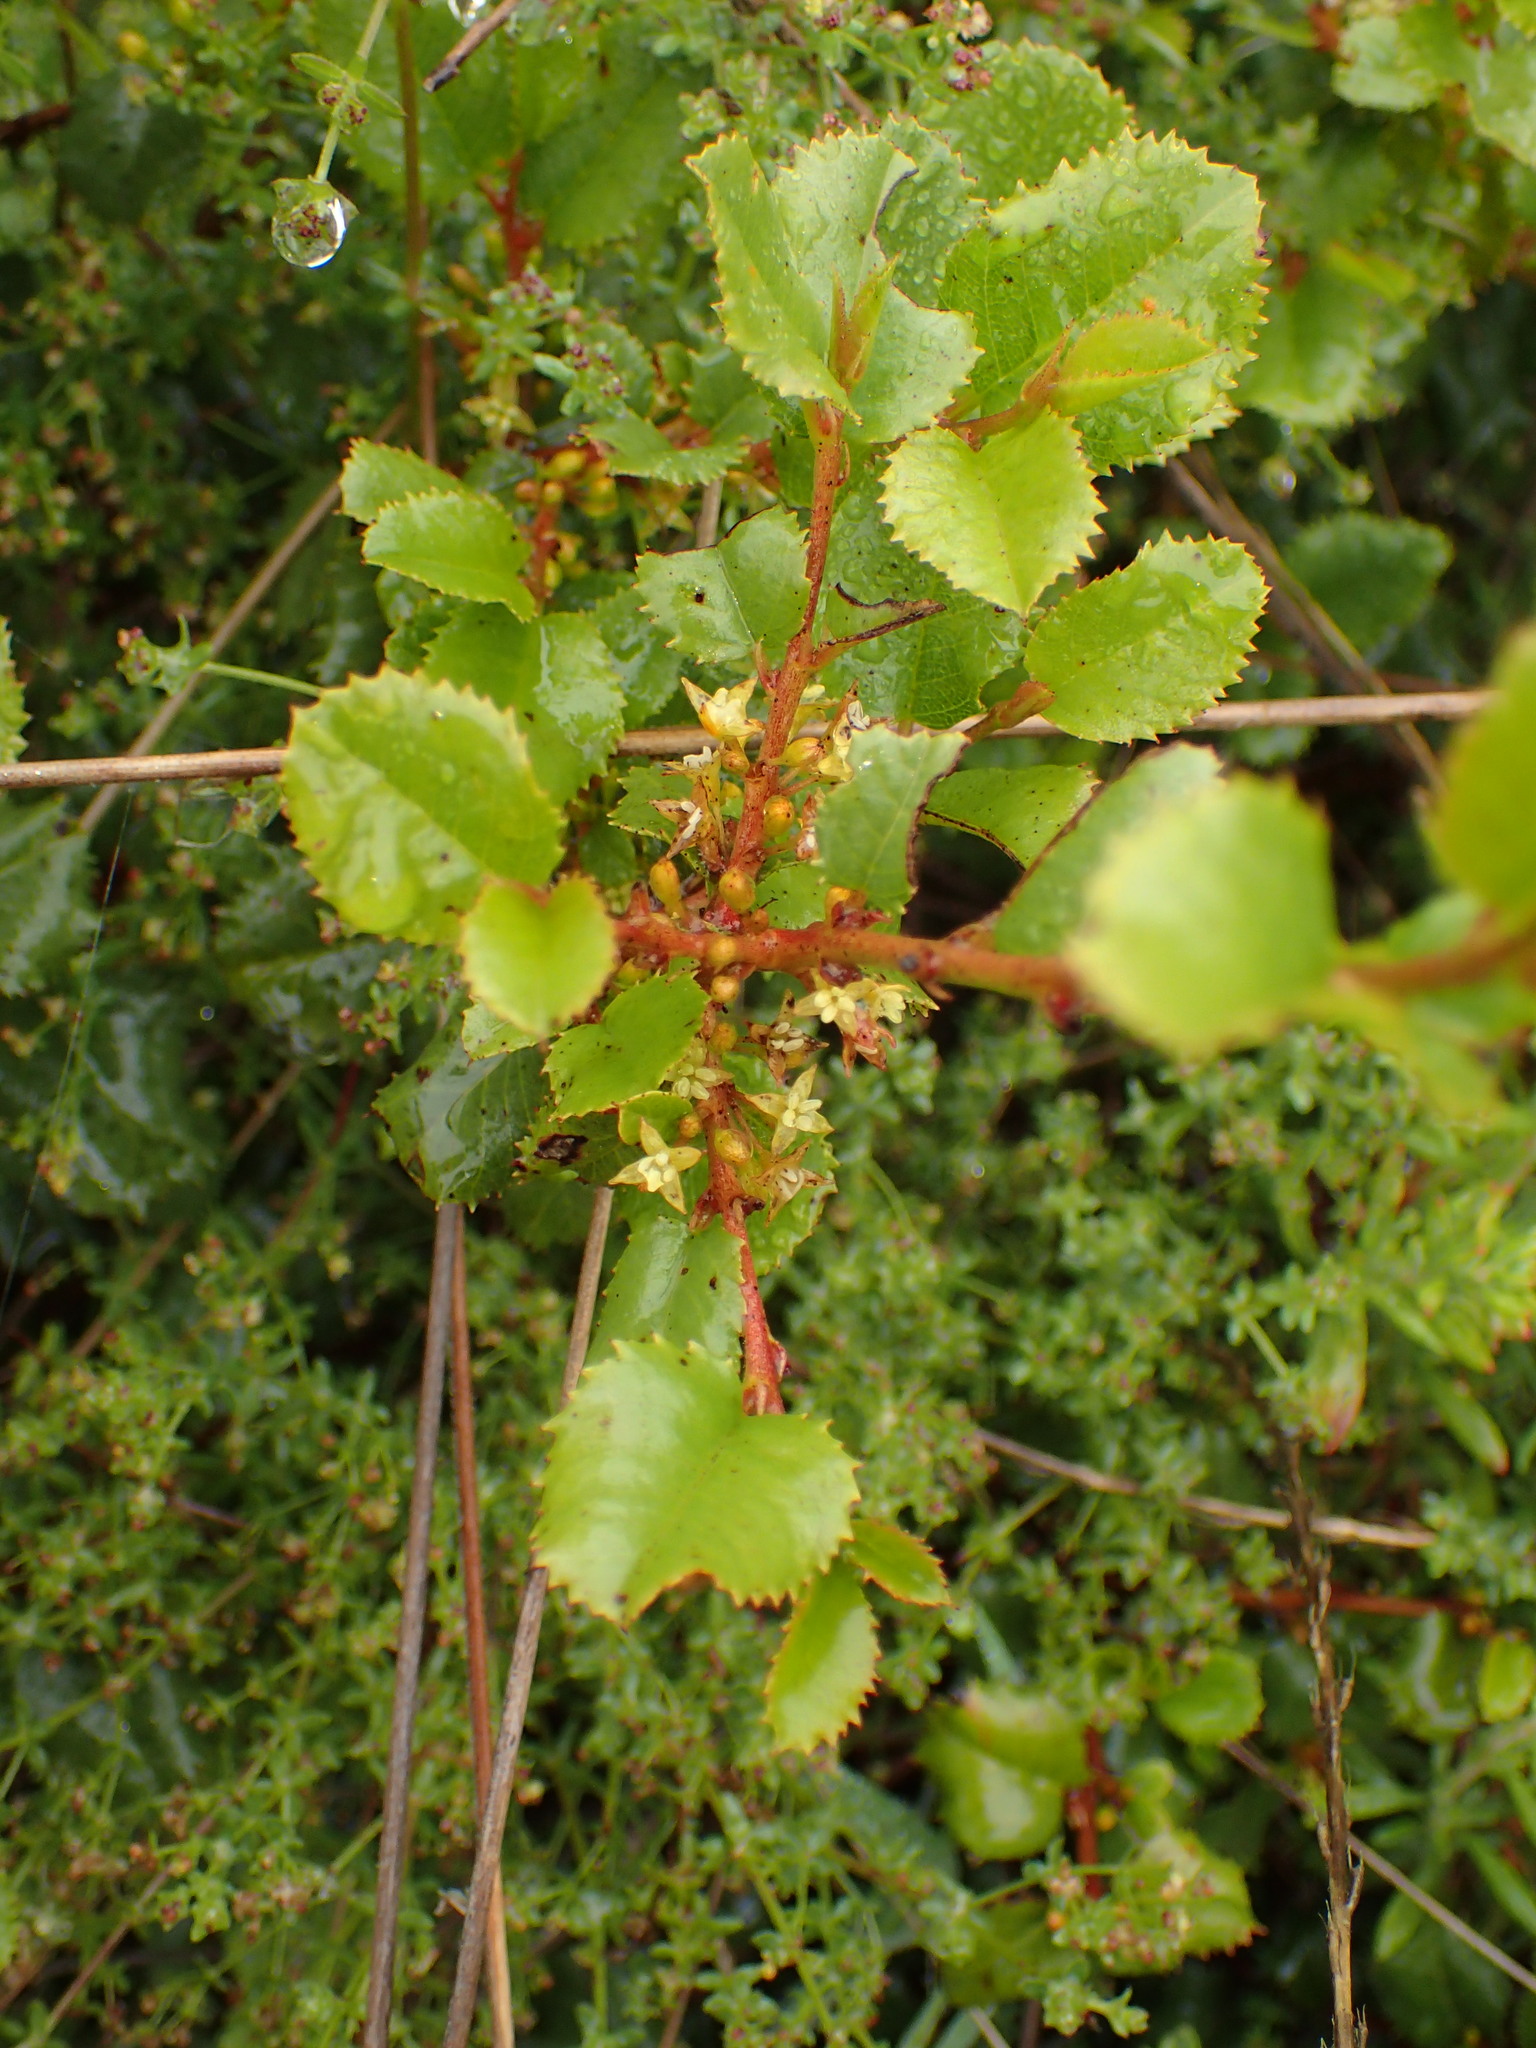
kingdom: Plantae
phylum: Tracheophyta
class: Magnoliopsida
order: Rosales
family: Rhamnaceae
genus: Endotropis
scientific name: Endotropis crocea
